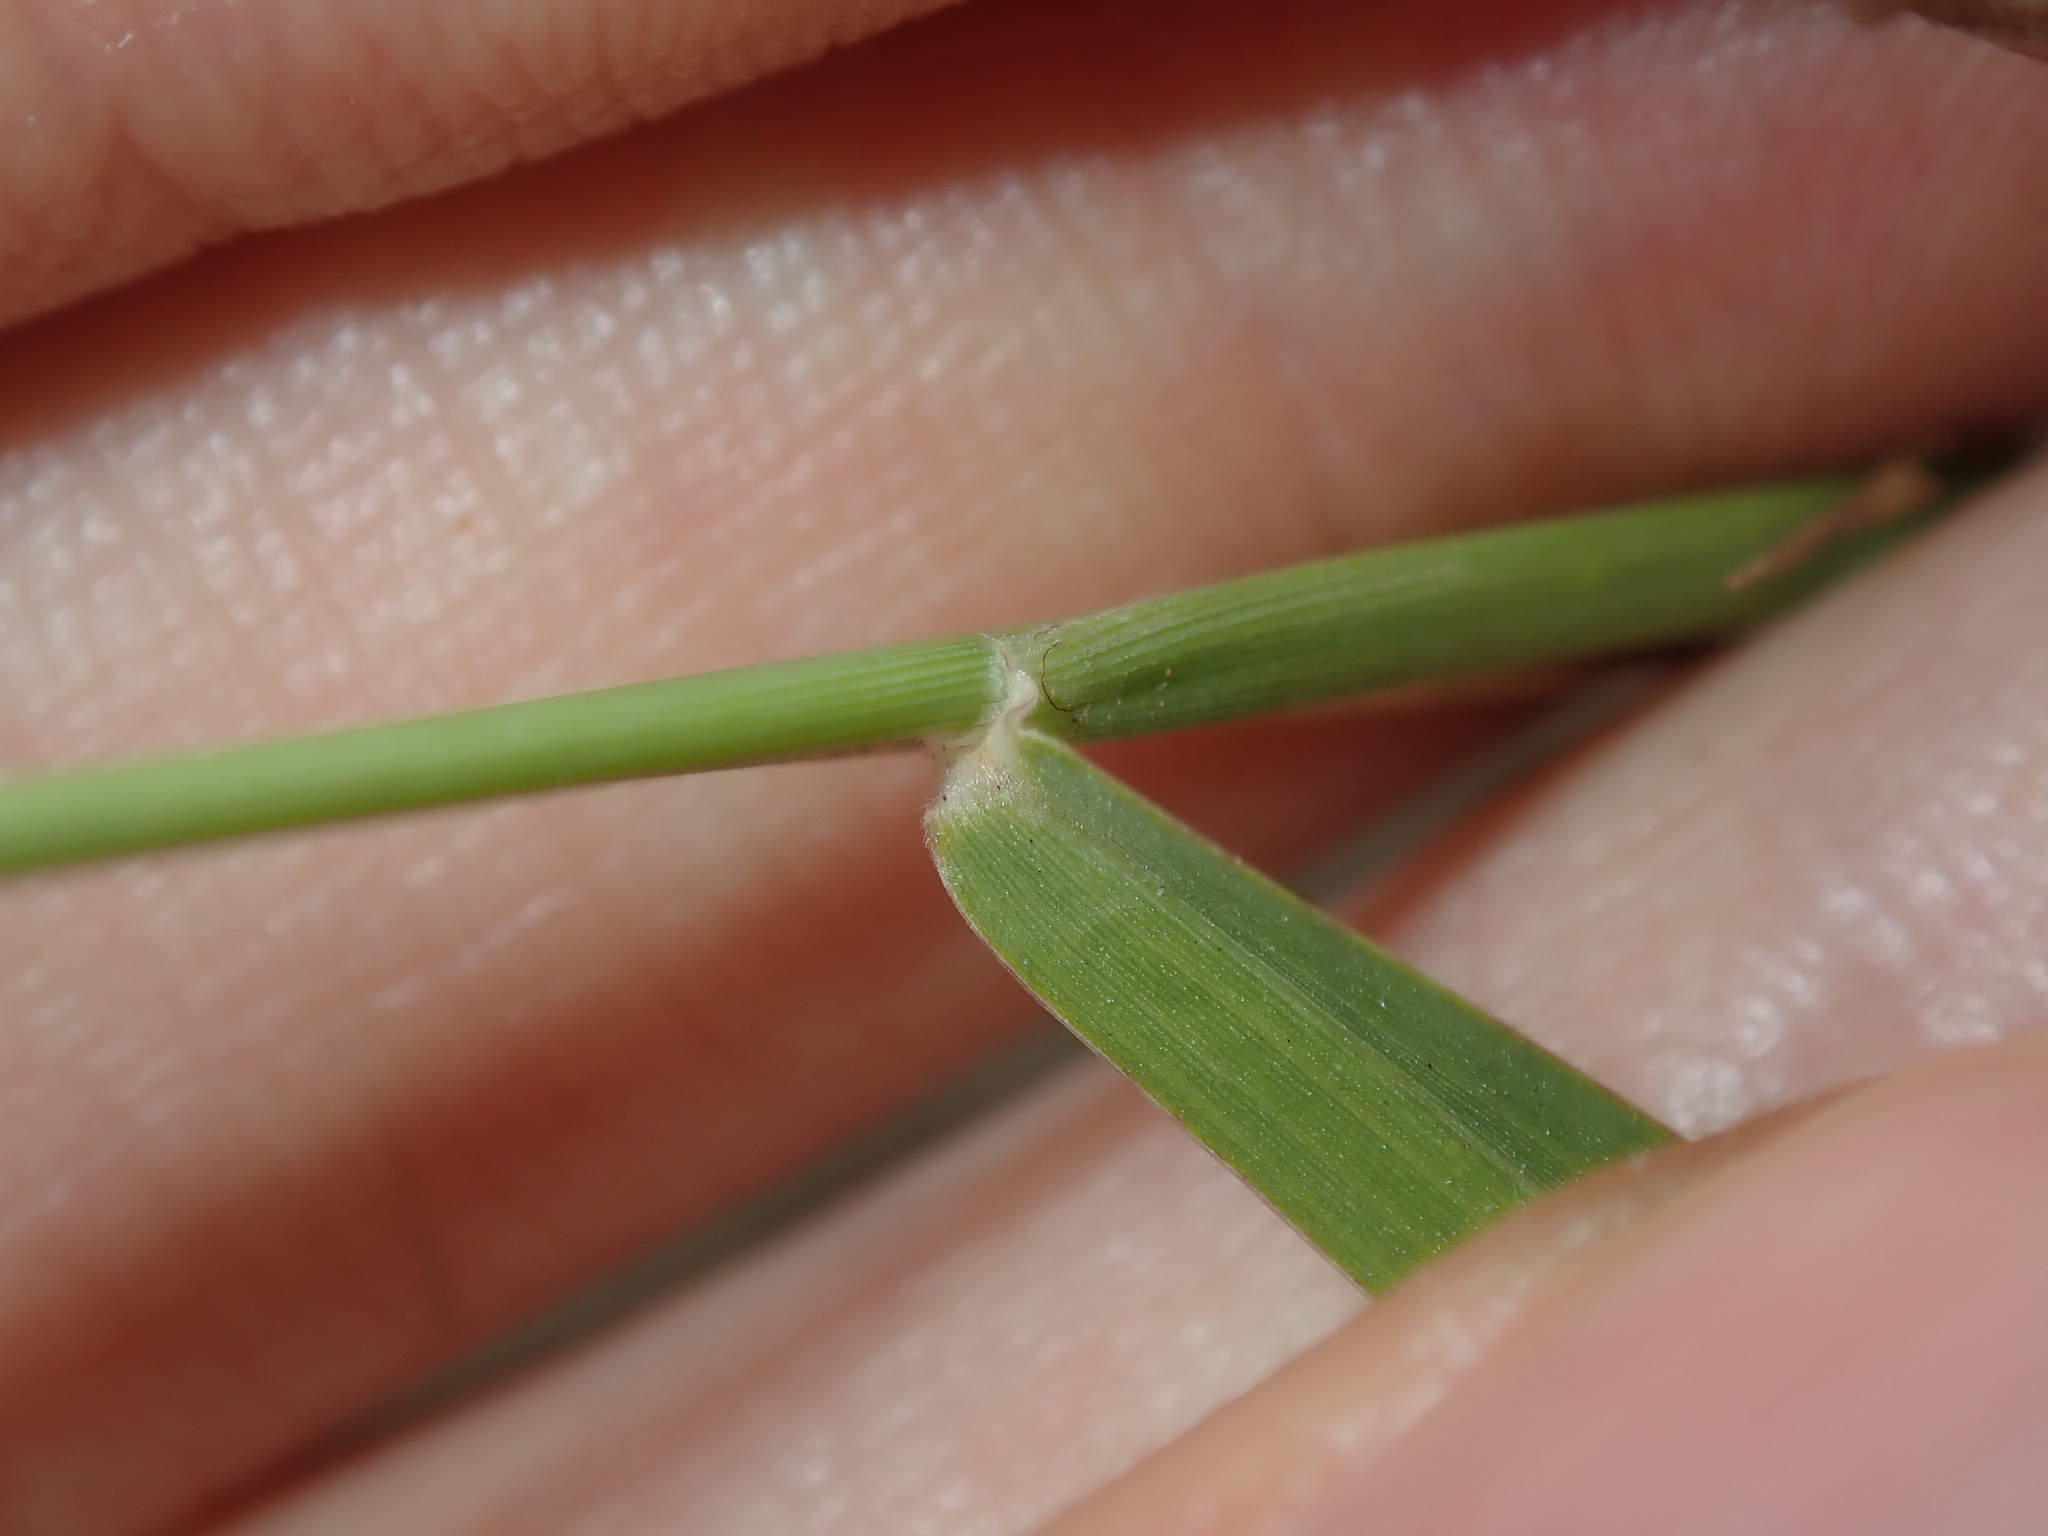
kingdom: Plantae
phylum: Tracheophyta
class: Liliopsida
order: Poales
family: Poaceae
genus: Eriochloa
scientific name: Eriochloa pseudoacrotricha
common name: Perennial cup-grass
